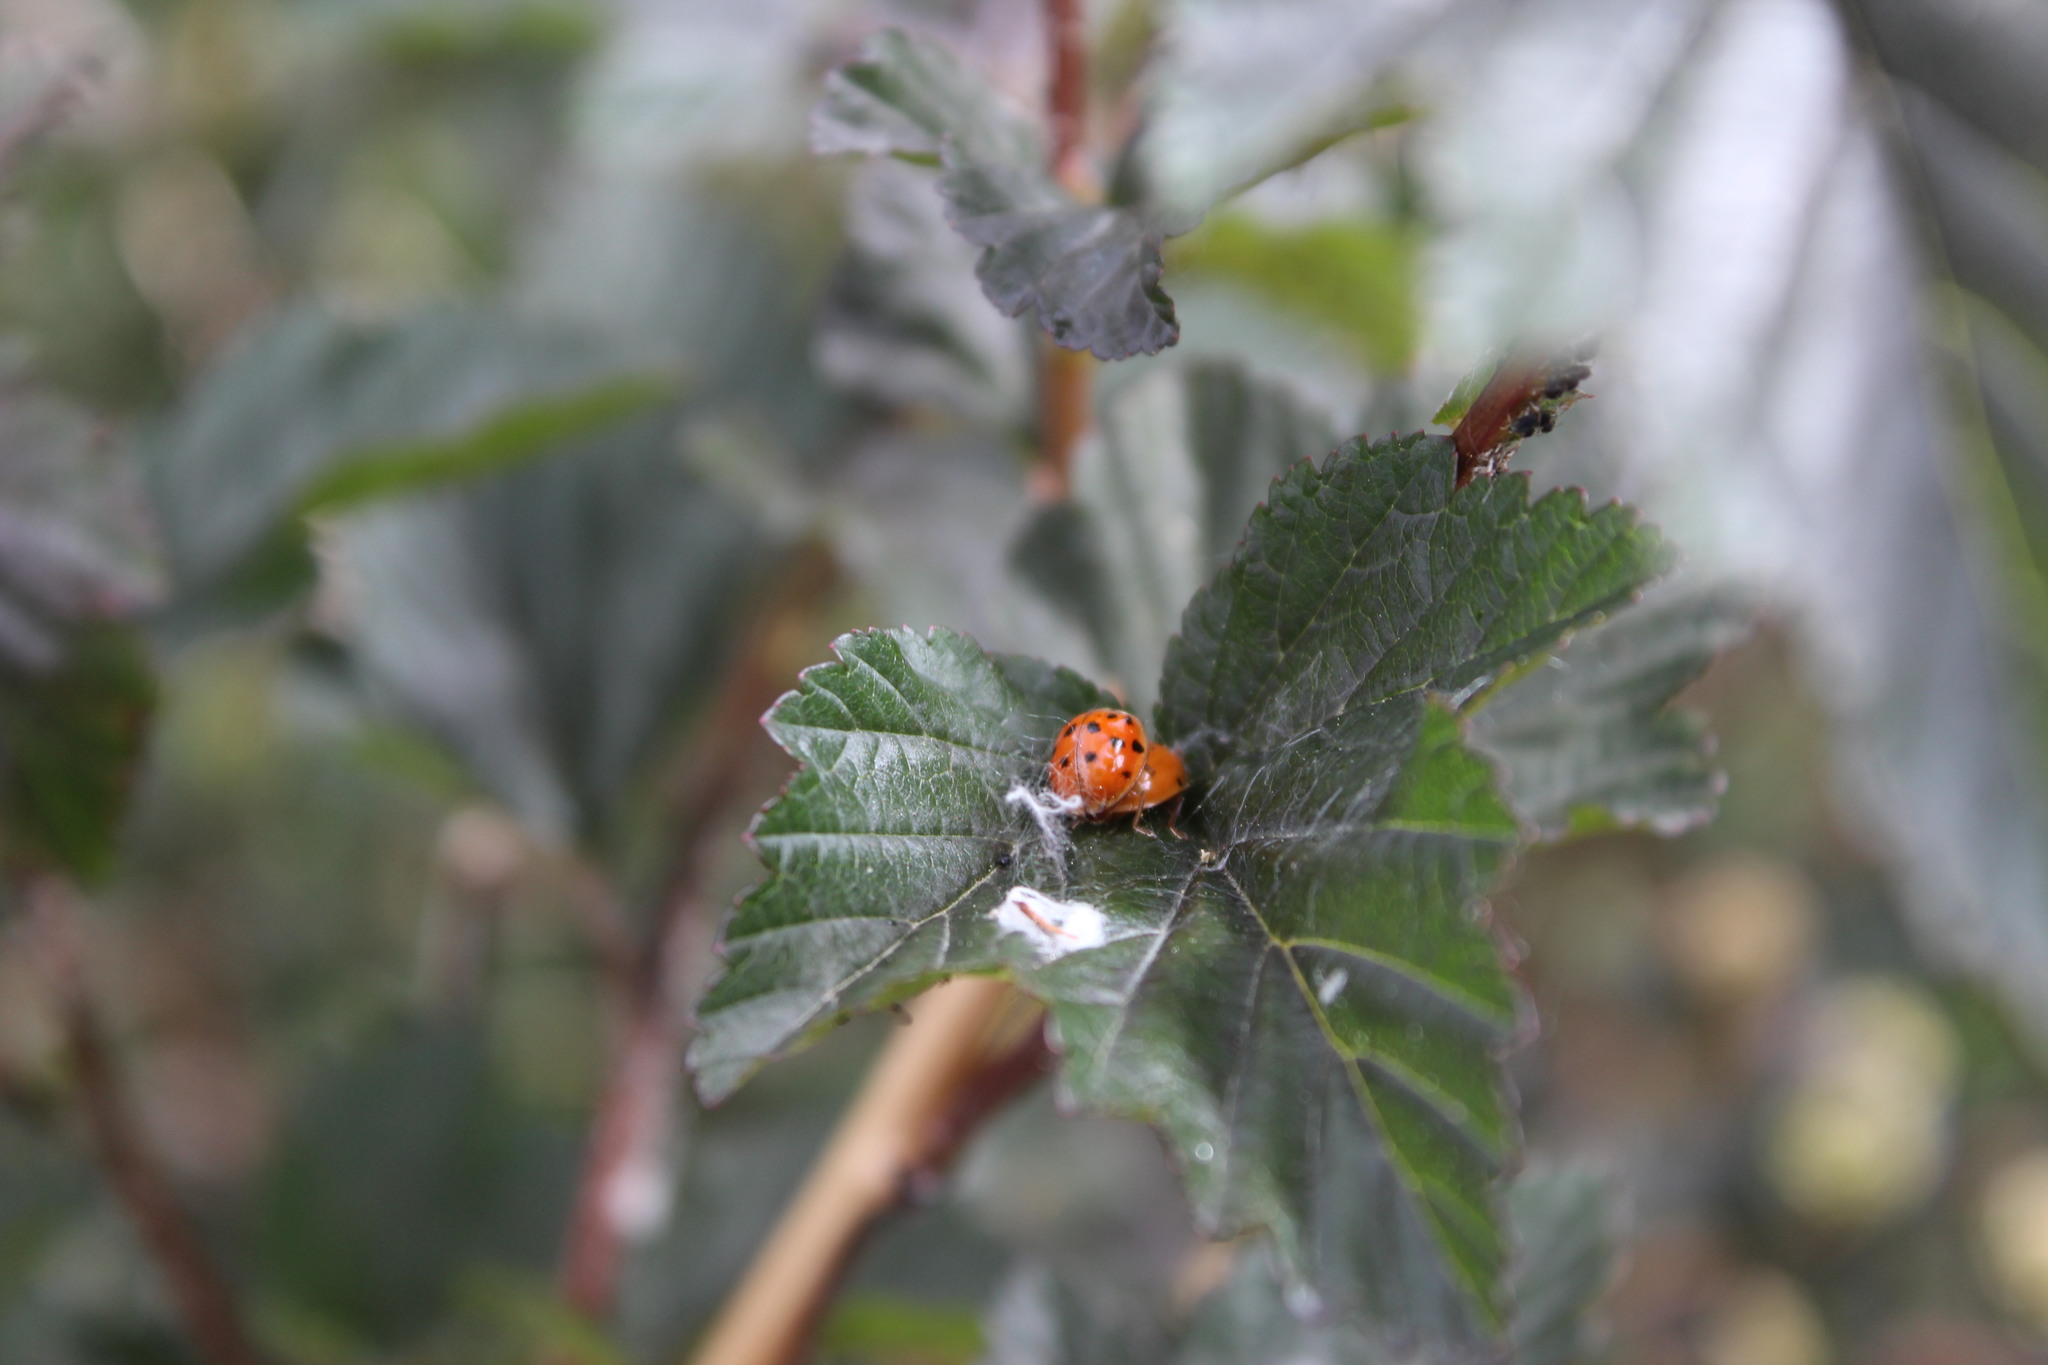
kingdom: Animalia
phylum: Arthropoda
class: Insecta
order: Coleoptera
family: Coccinellidae
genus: Harmonia
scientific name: Harmonia axyridis
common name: Harlequin ladybird
